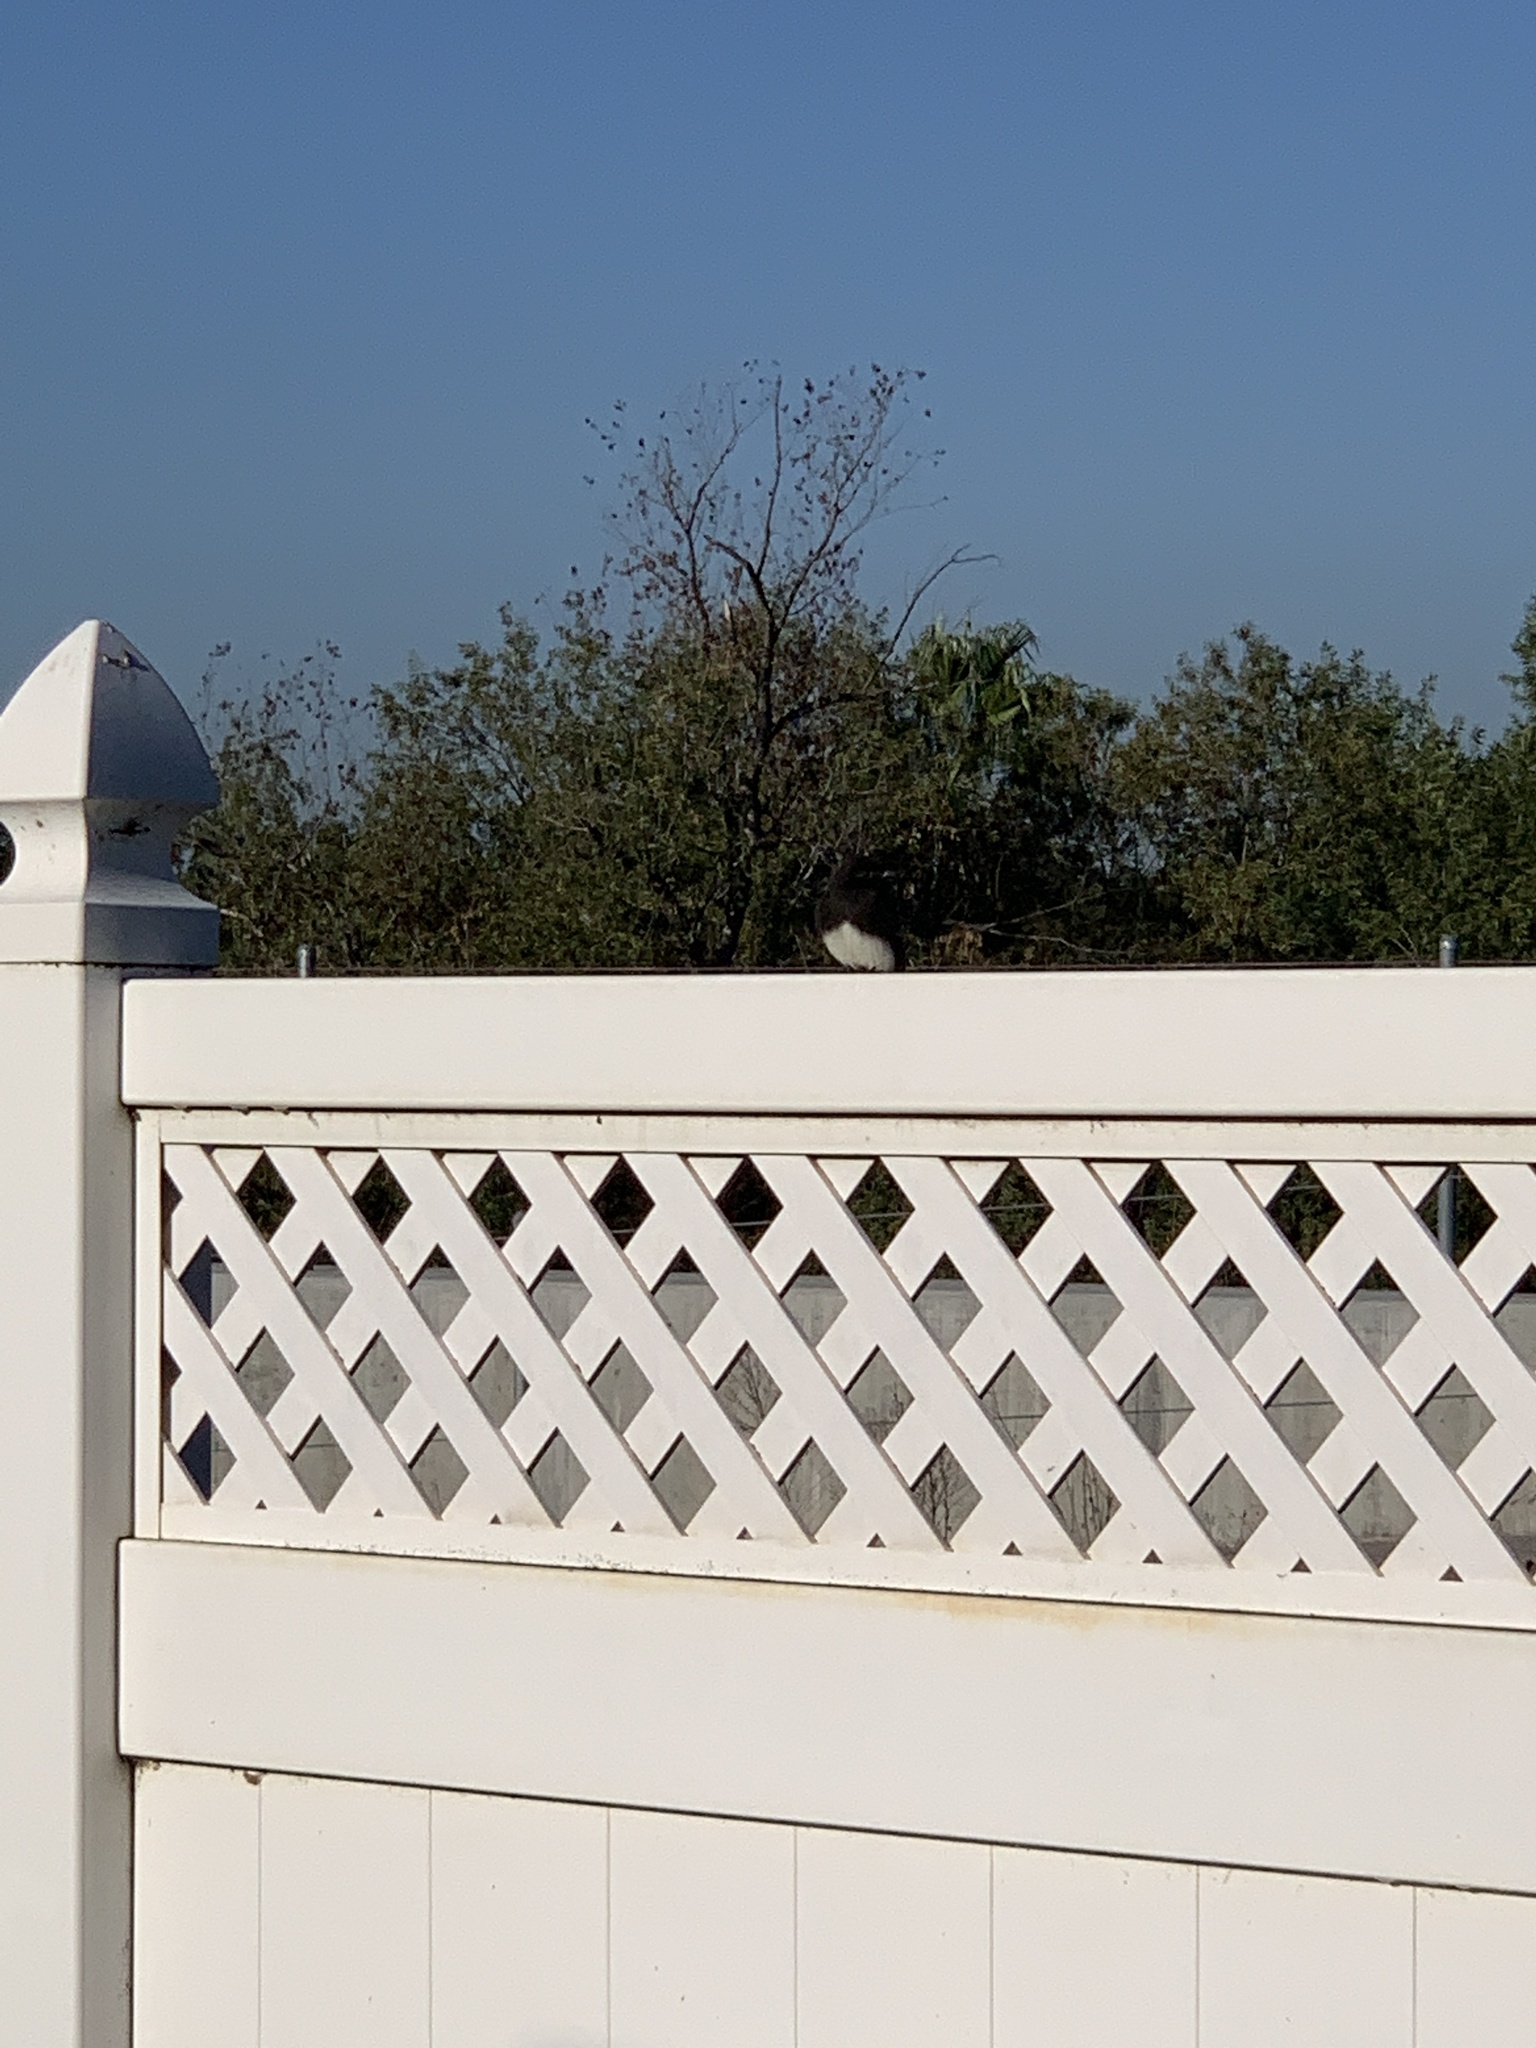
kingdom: Animalia
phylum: Chordata
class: Aves
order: Passeriformes
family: Tyrannidae
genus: Sayornis
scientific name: Sayornis nigricans
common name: Black phoebe
